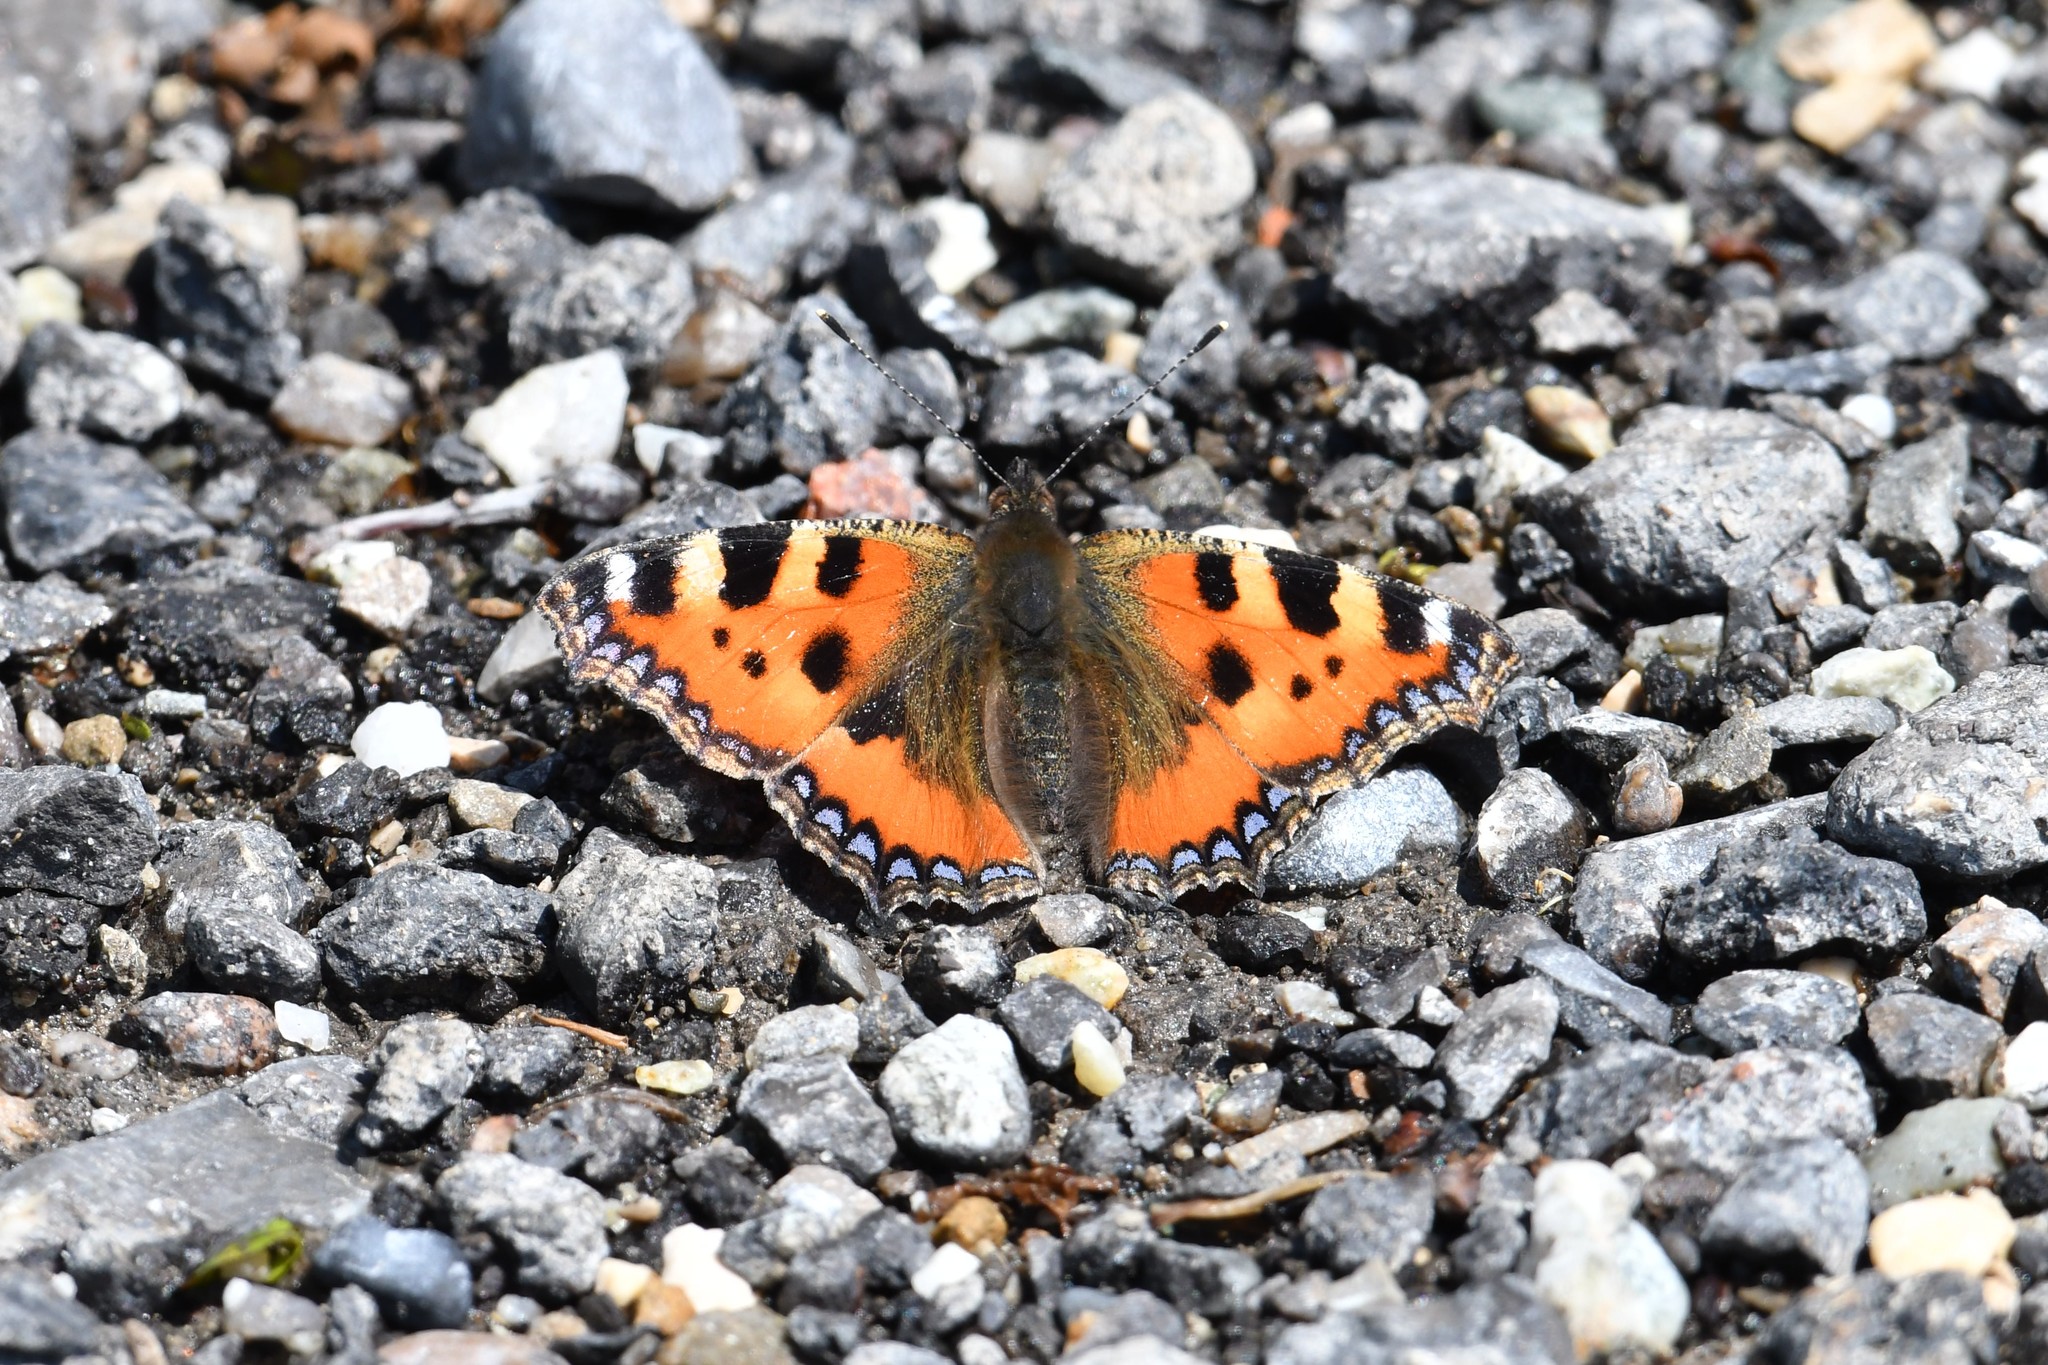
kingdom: Animalia
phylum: Arthropoda
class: Insecta
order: Lepidoptera
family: Nymphalidae
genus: Aglais
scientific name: Aglais urticae
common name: Small tortoiseshell
